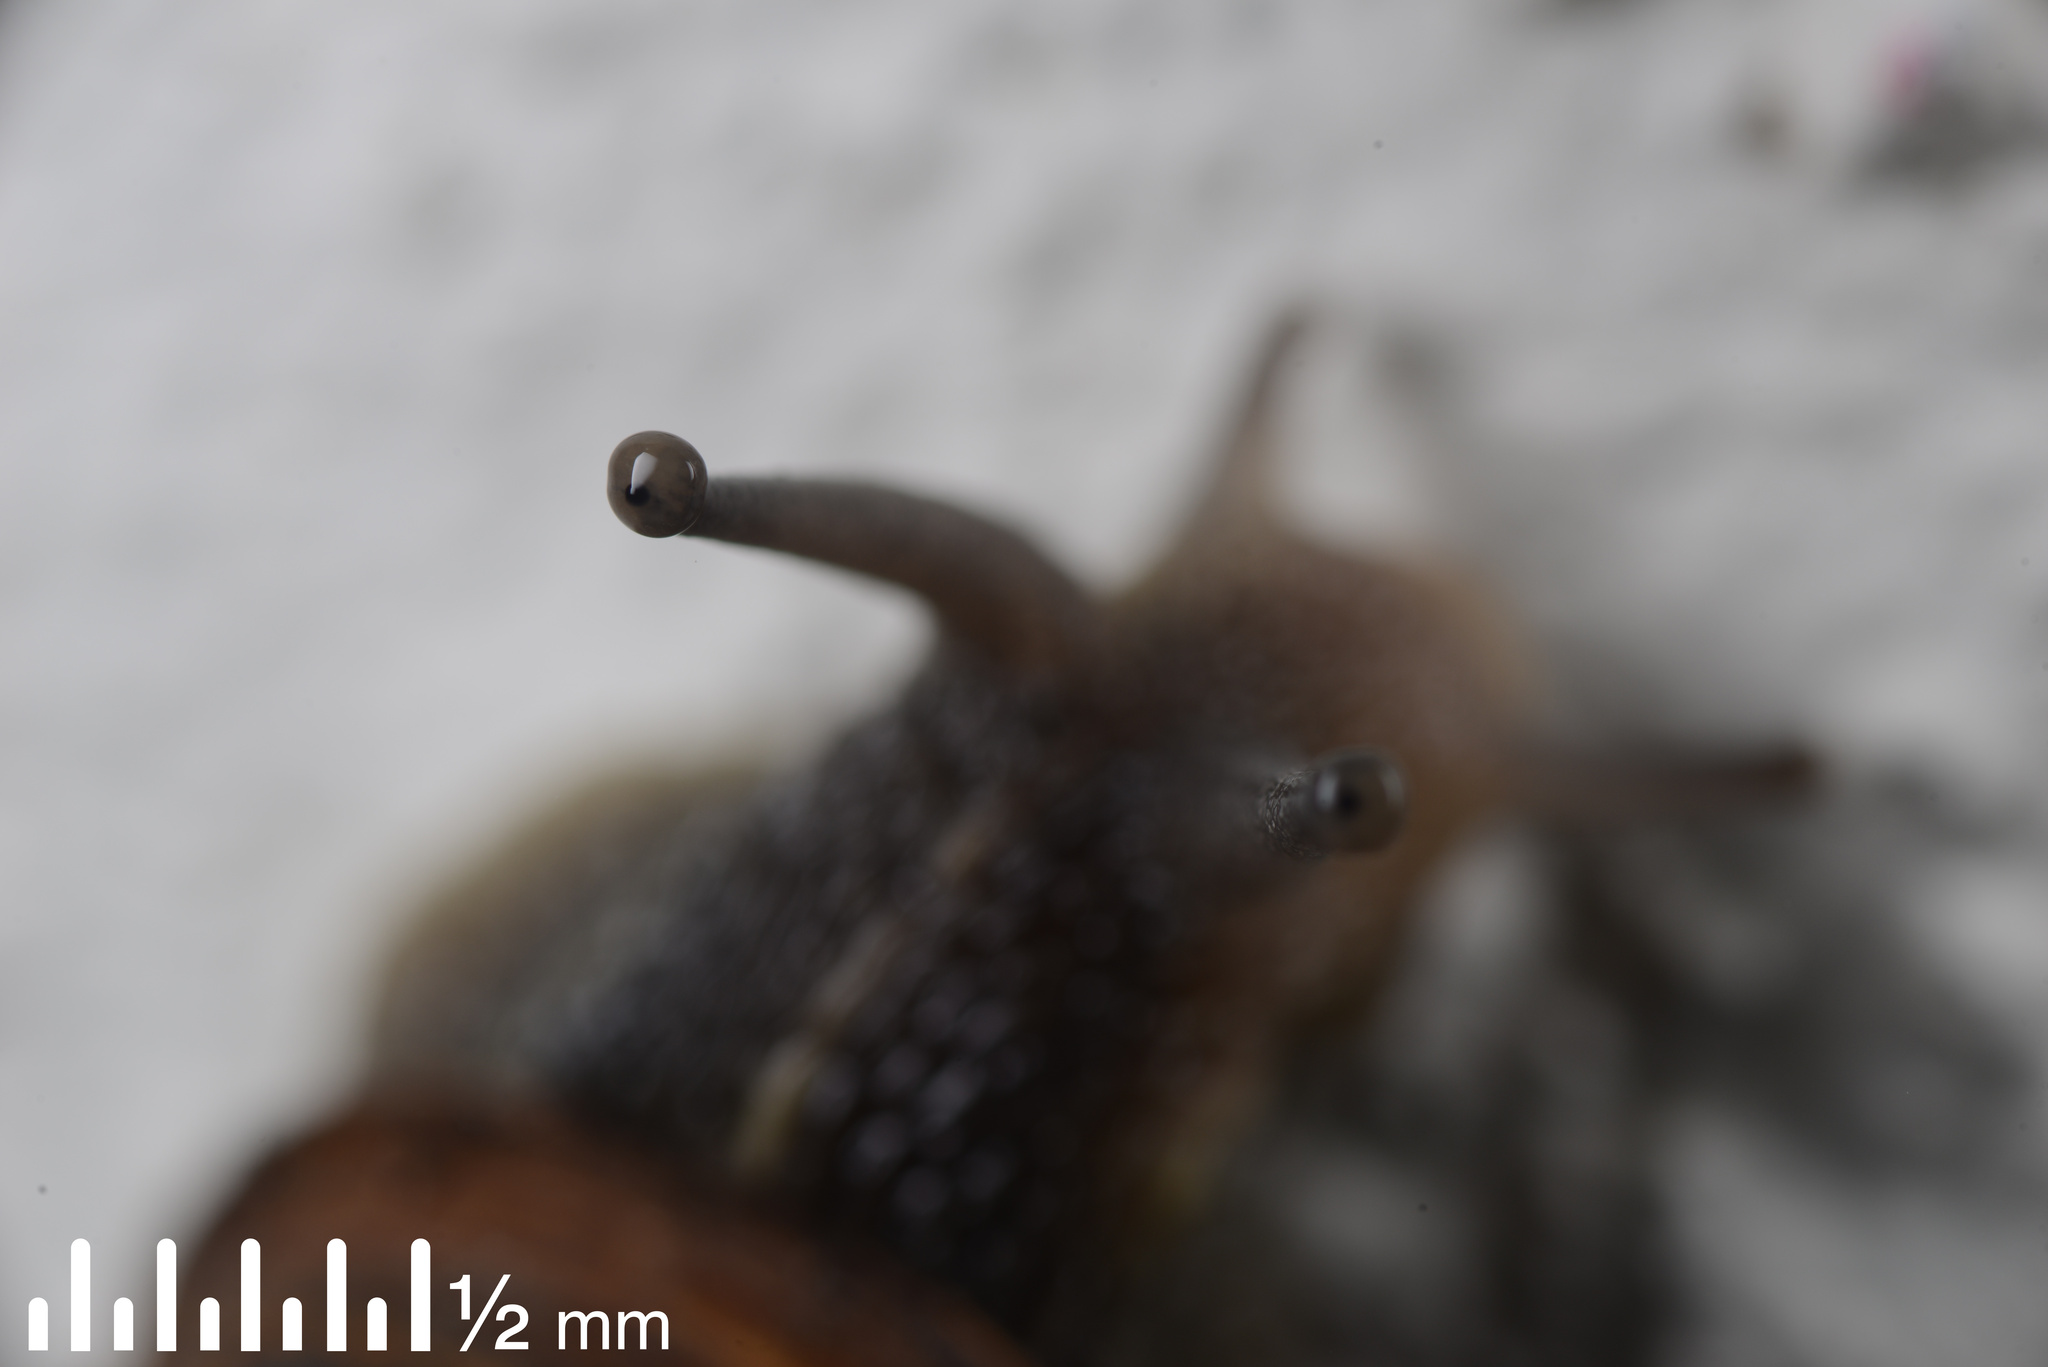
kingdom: Animalia
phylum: Mollusca
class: Gastropoda
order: Stylommatophora
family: Helicidae
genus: Cornu
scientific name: Cornu aspersum
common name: Brown garden snail
